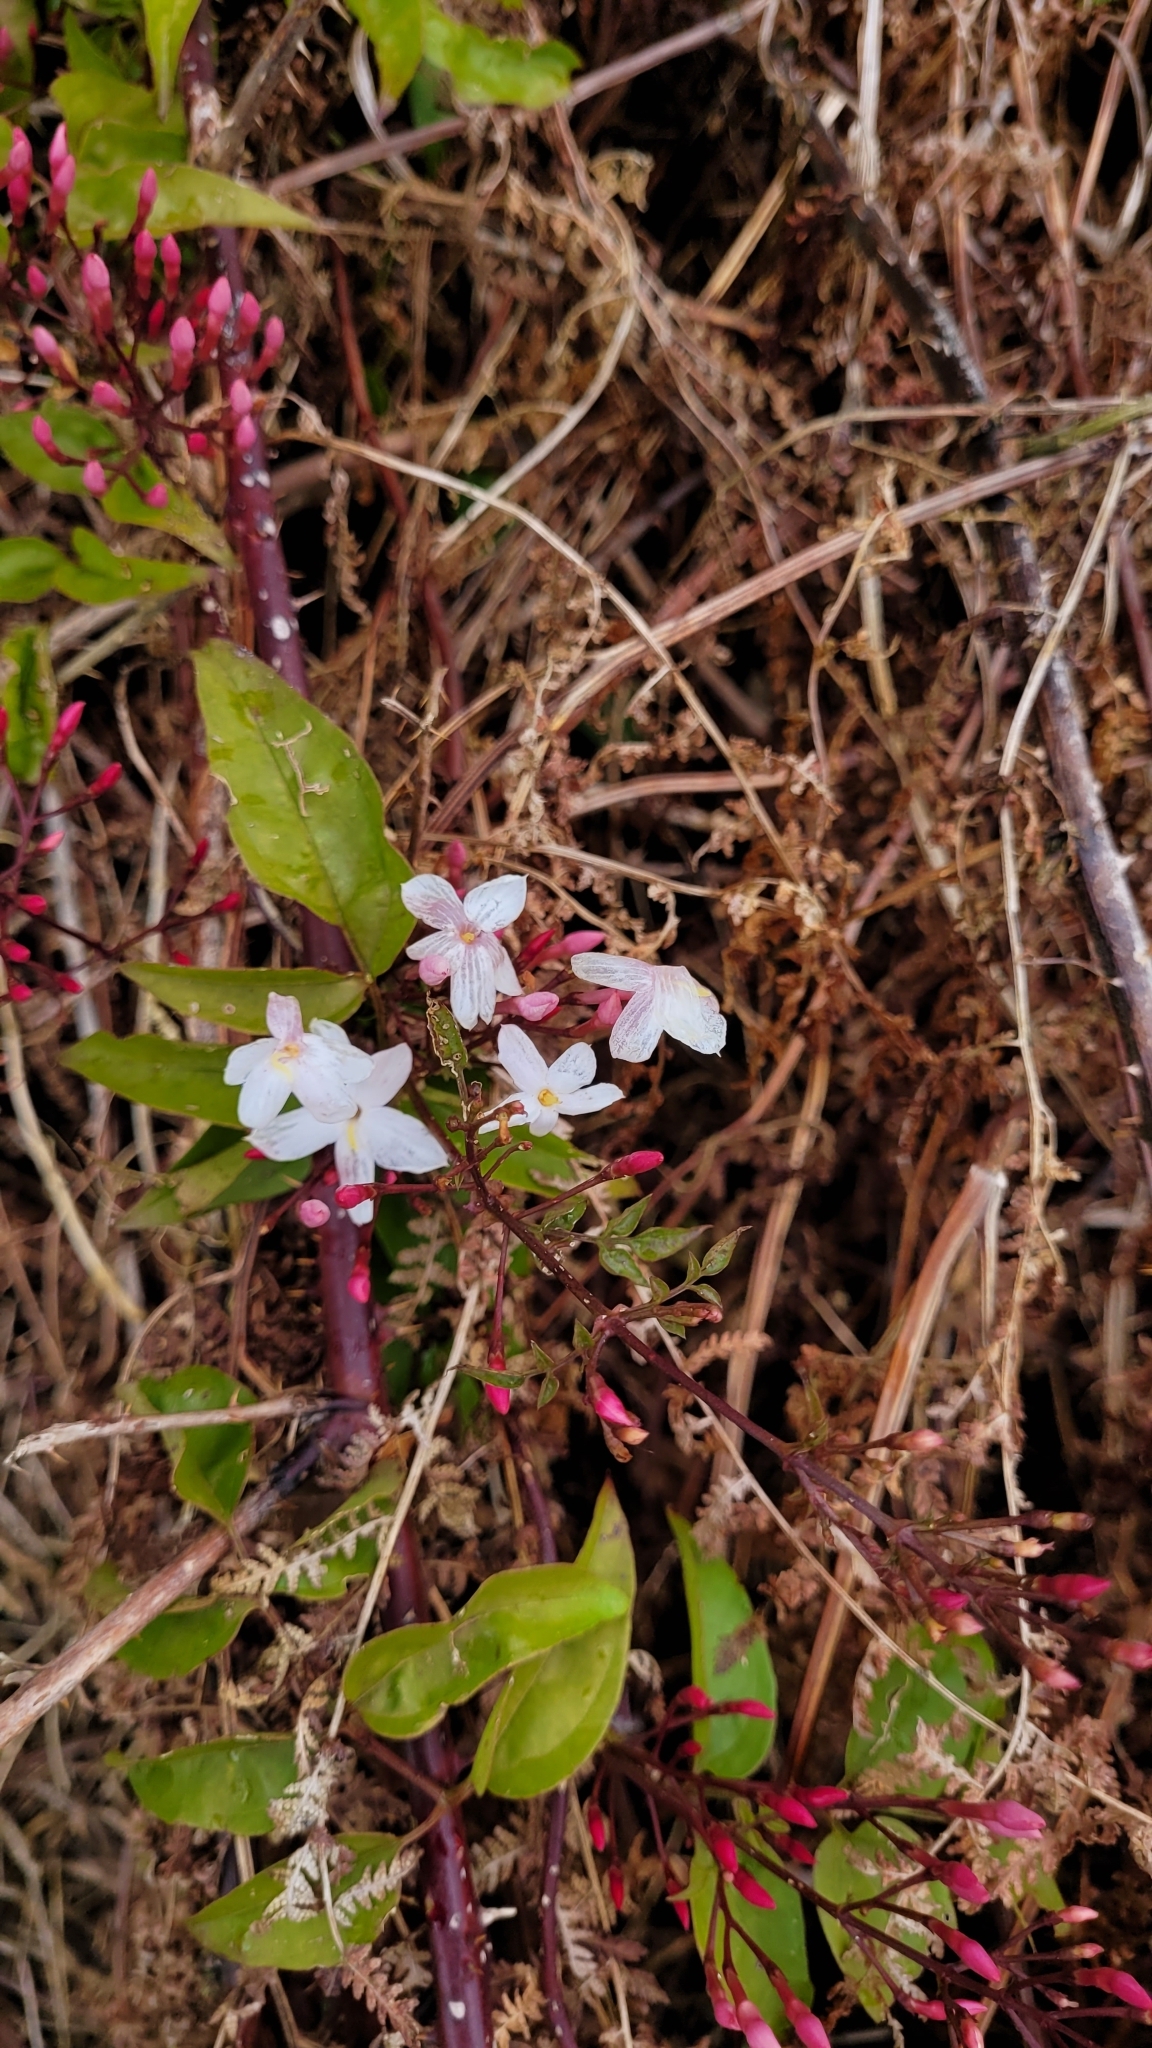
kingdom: Plantae
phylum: Tracheophyta
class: Magnoliopsida
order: Lamiales
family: Oleaceae
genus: Jasminum
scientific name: Jasminum polyanthum
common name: Pink jasmine
